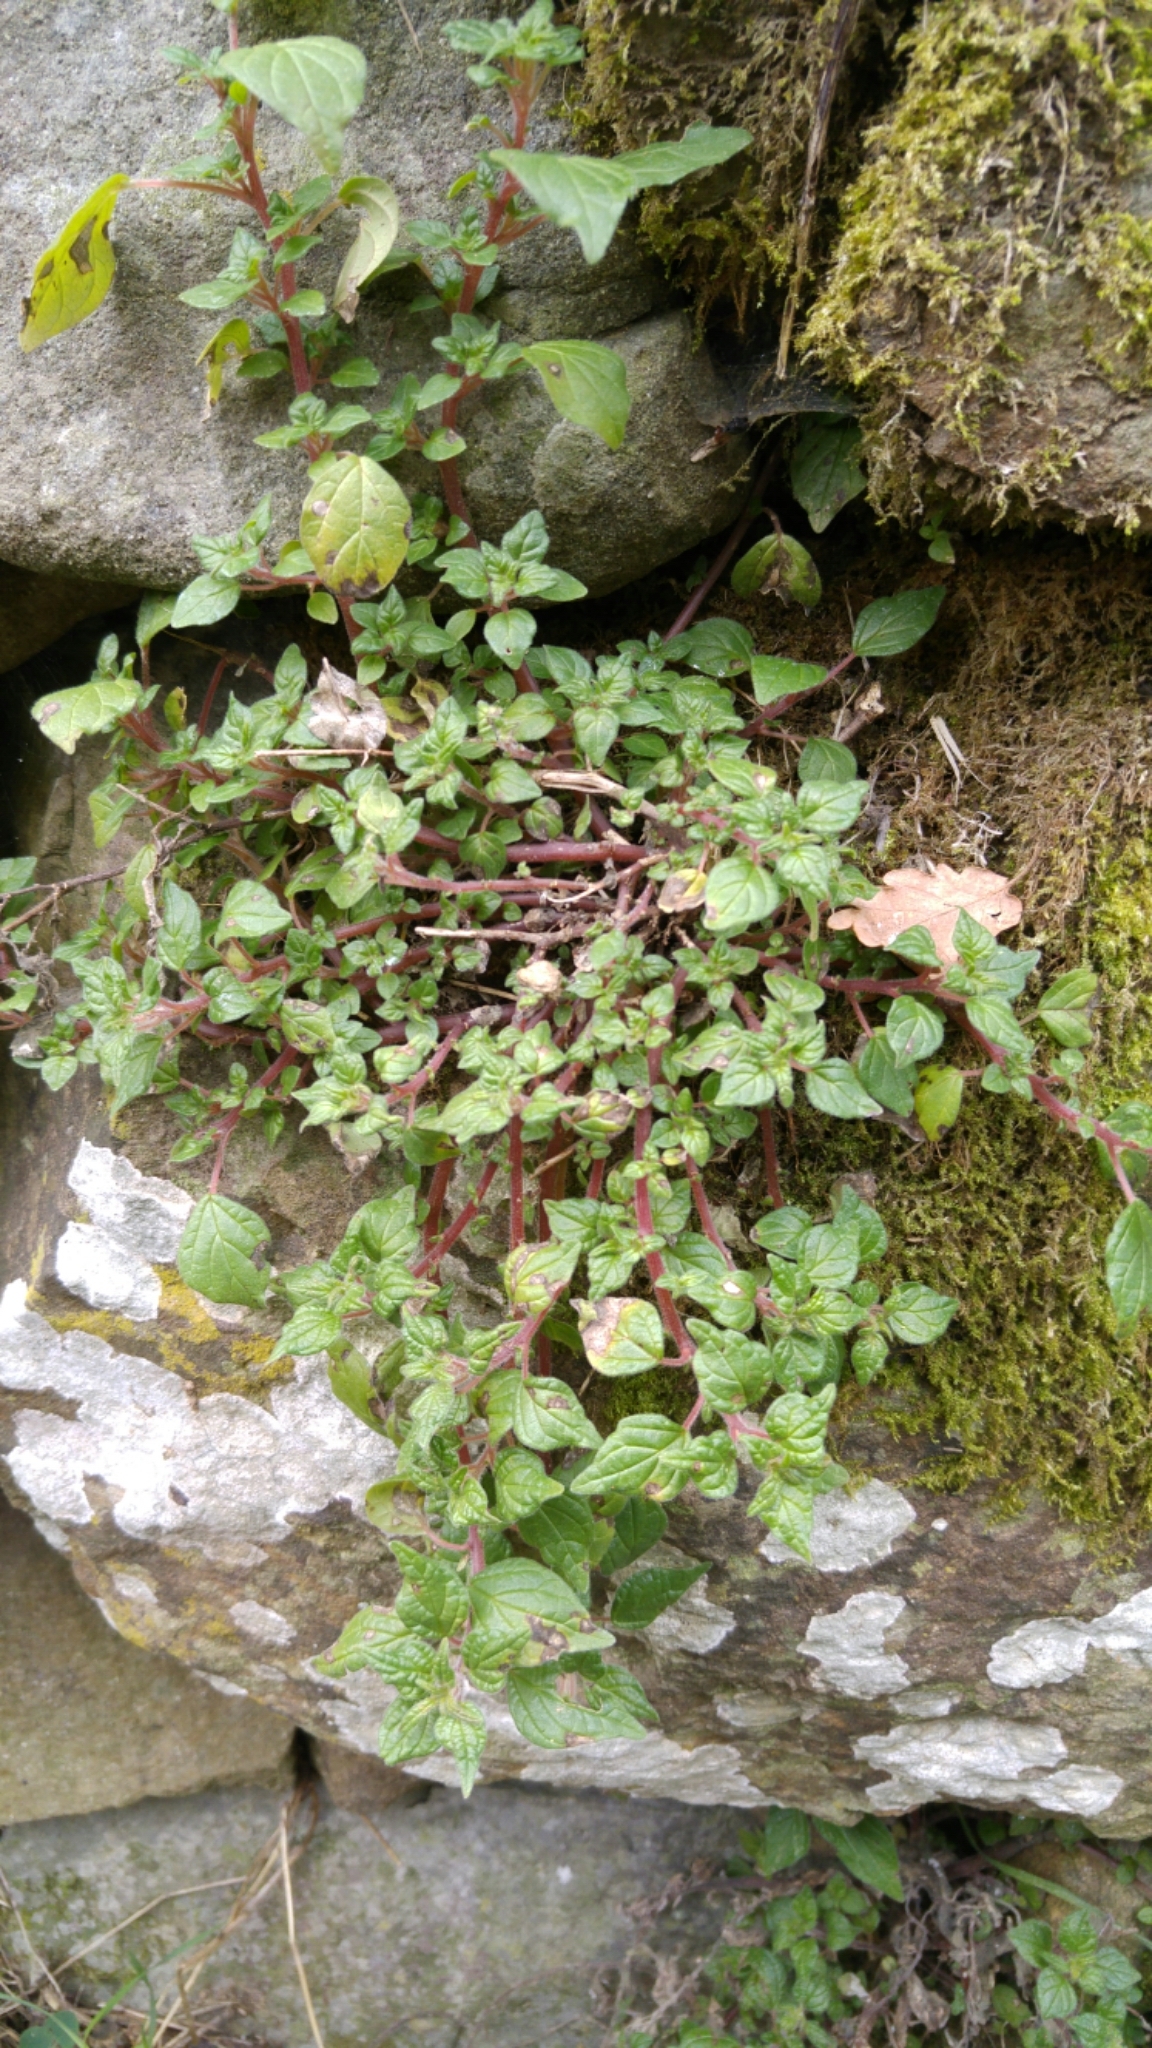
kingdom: Plantae
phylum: Tracheophyta
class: Magnoliopsida
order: Rosales
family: Urticaceae
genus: Parietaria
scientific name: Parietaria judaica
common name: Pellitory-of-the-wall
